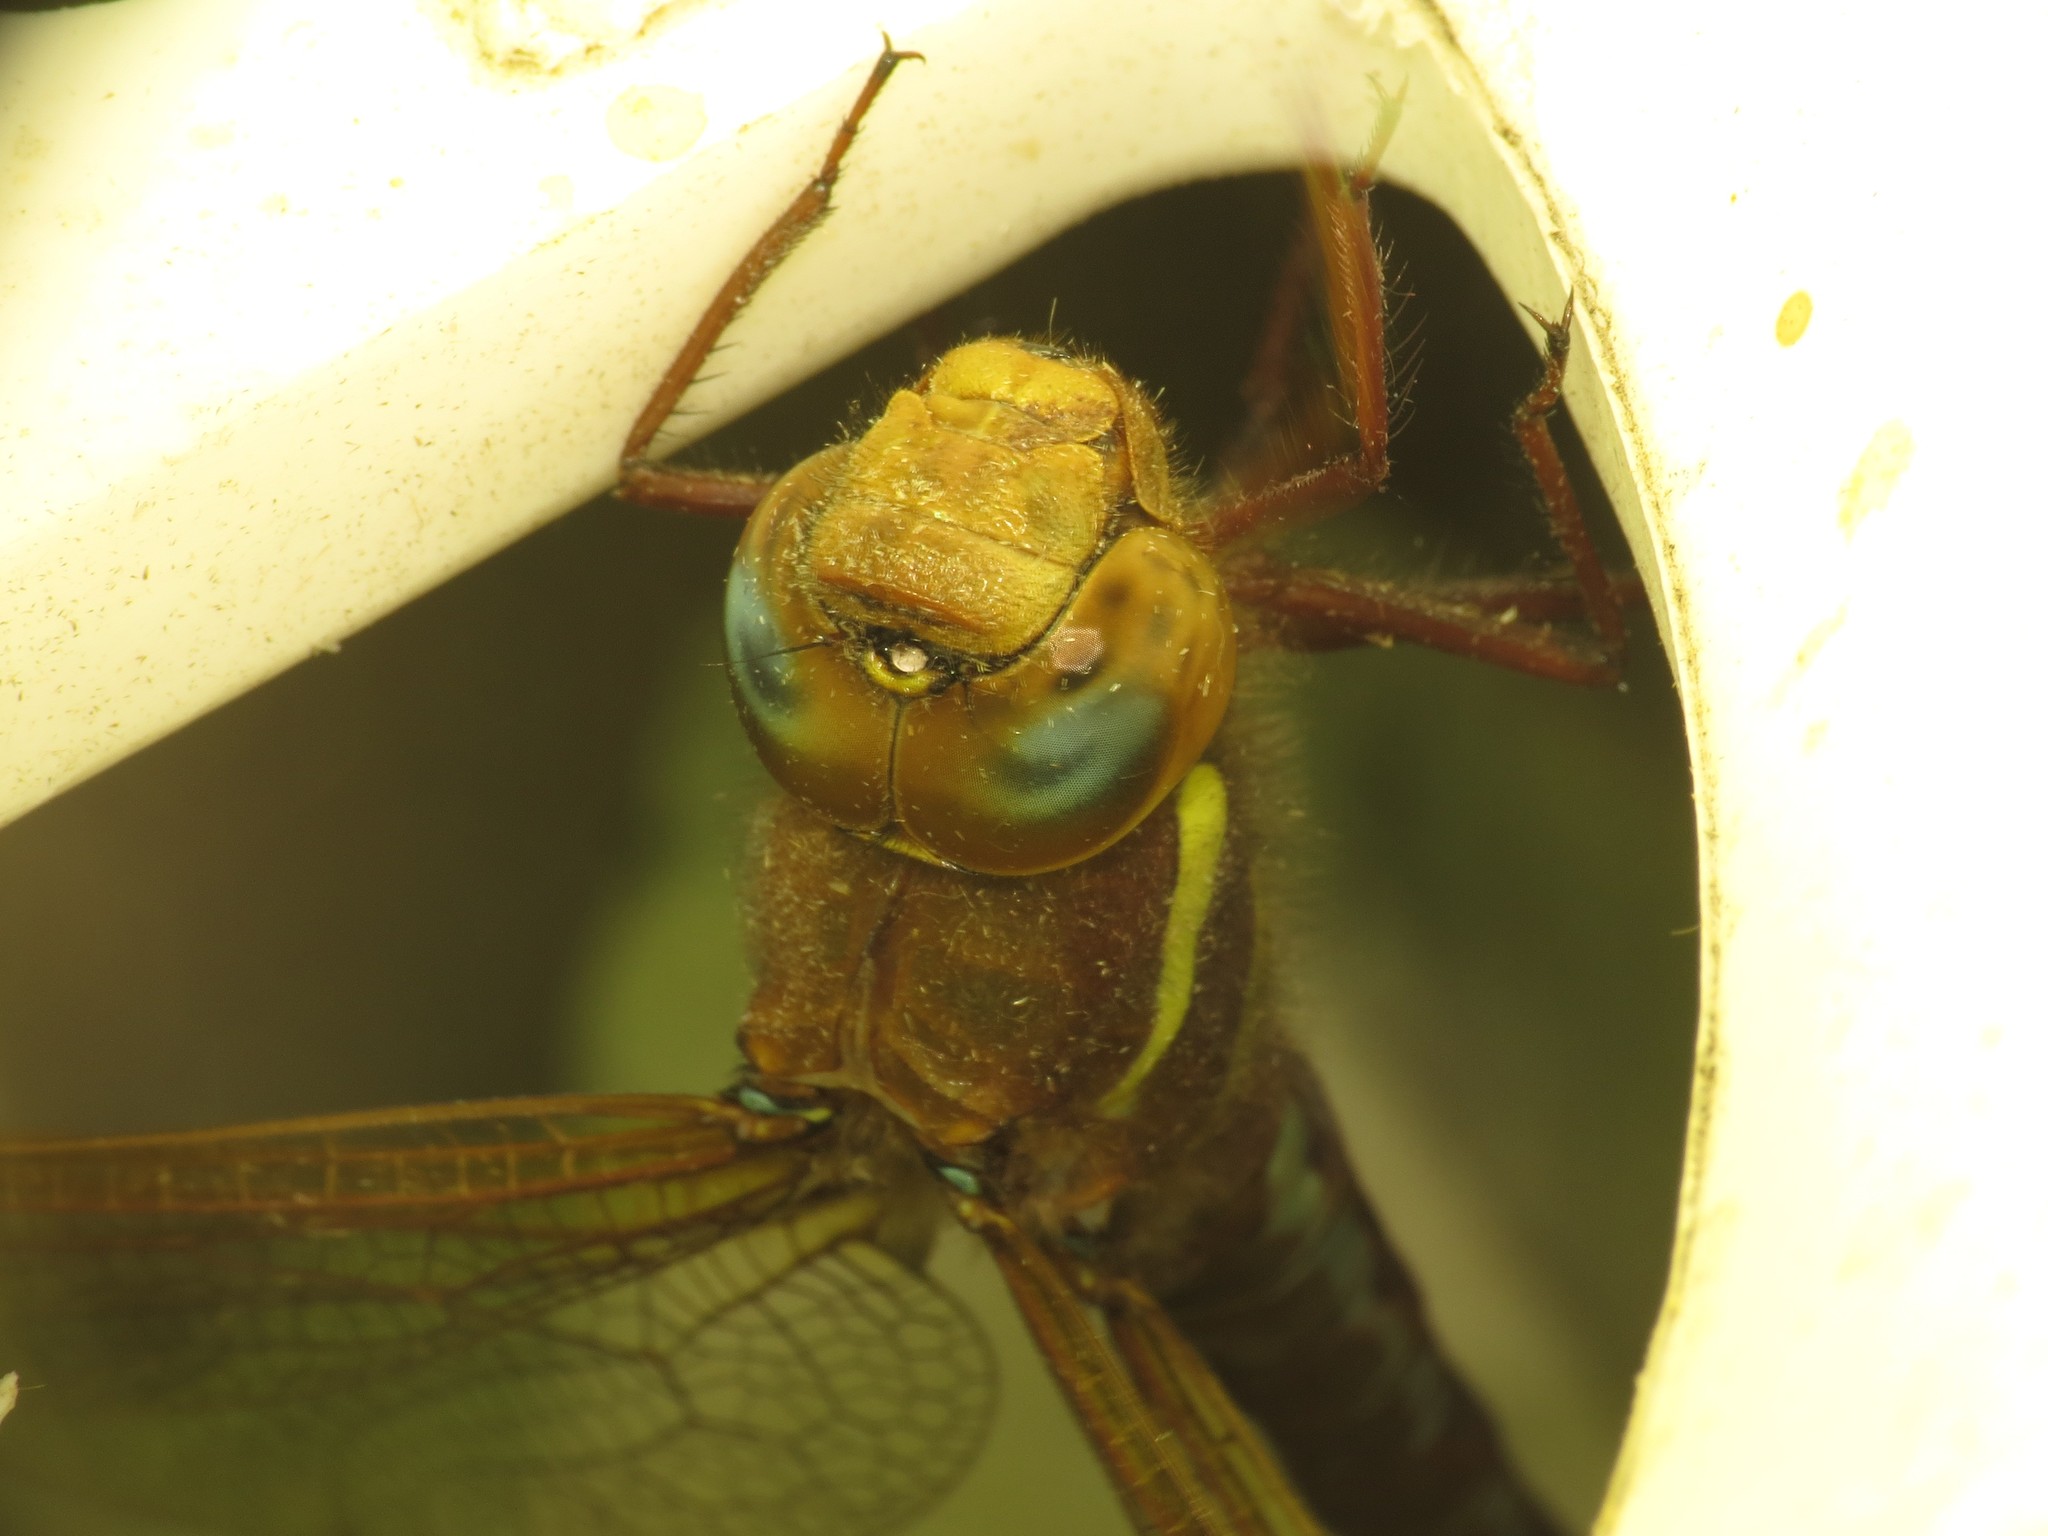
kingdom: Animalia
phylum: Arthropoda
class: Insecta
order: Odonata
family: Aeshnidae
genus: Aeshna
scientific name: Aeshna grandis
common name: Brown hawker
